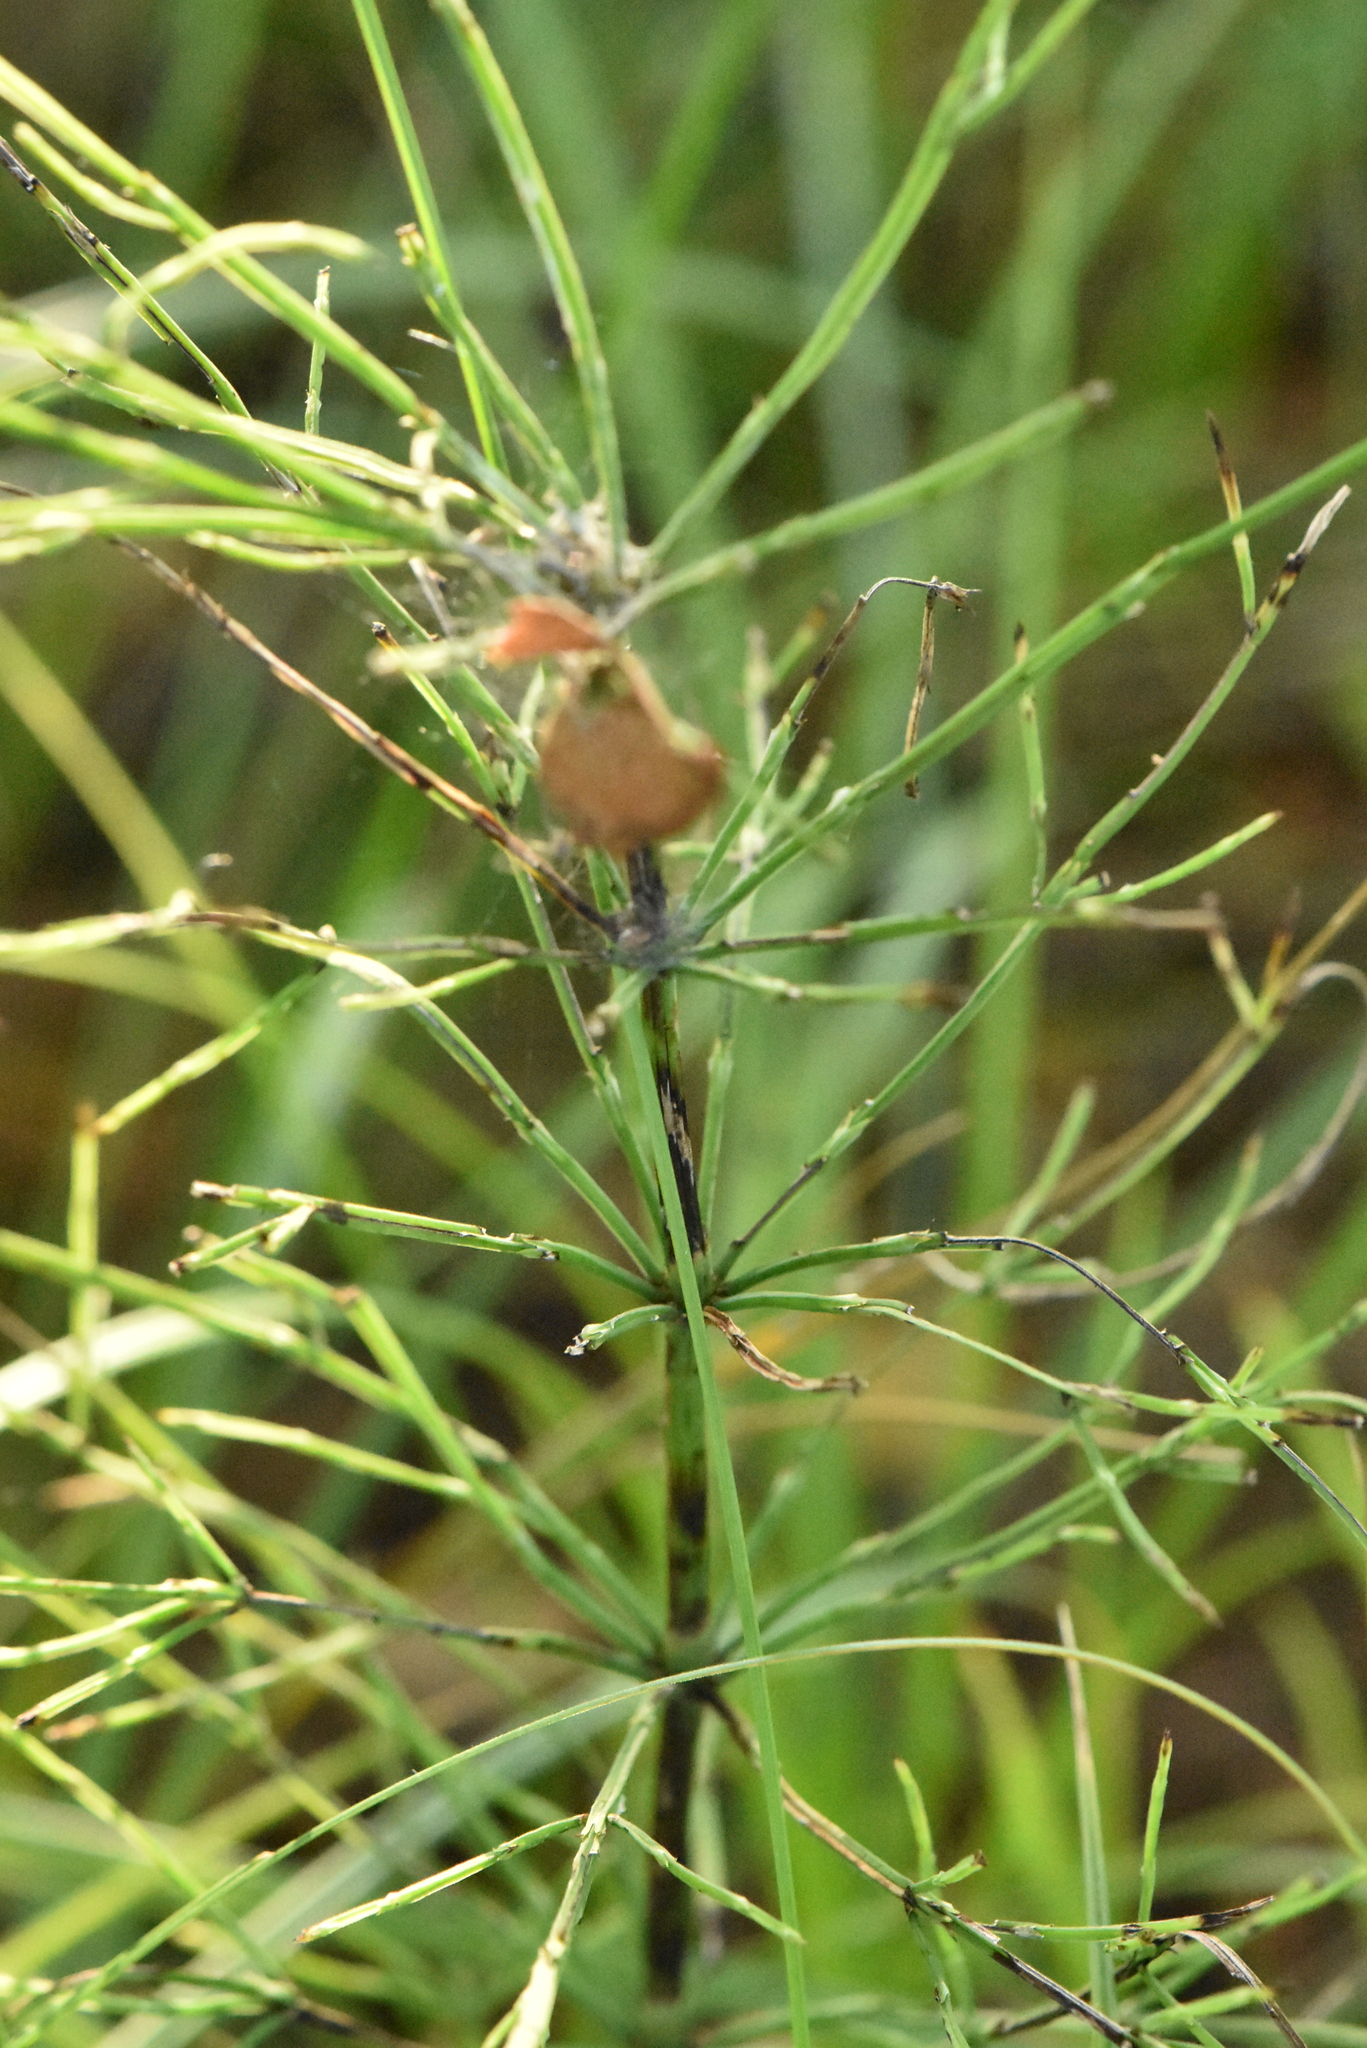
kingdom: Plantae
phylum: Tracheophyta
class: Polypodiopsida
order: Equisetales
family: Equisetaceae
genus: Equisetum
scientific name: Equisetum arvense
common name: Field horsetail
